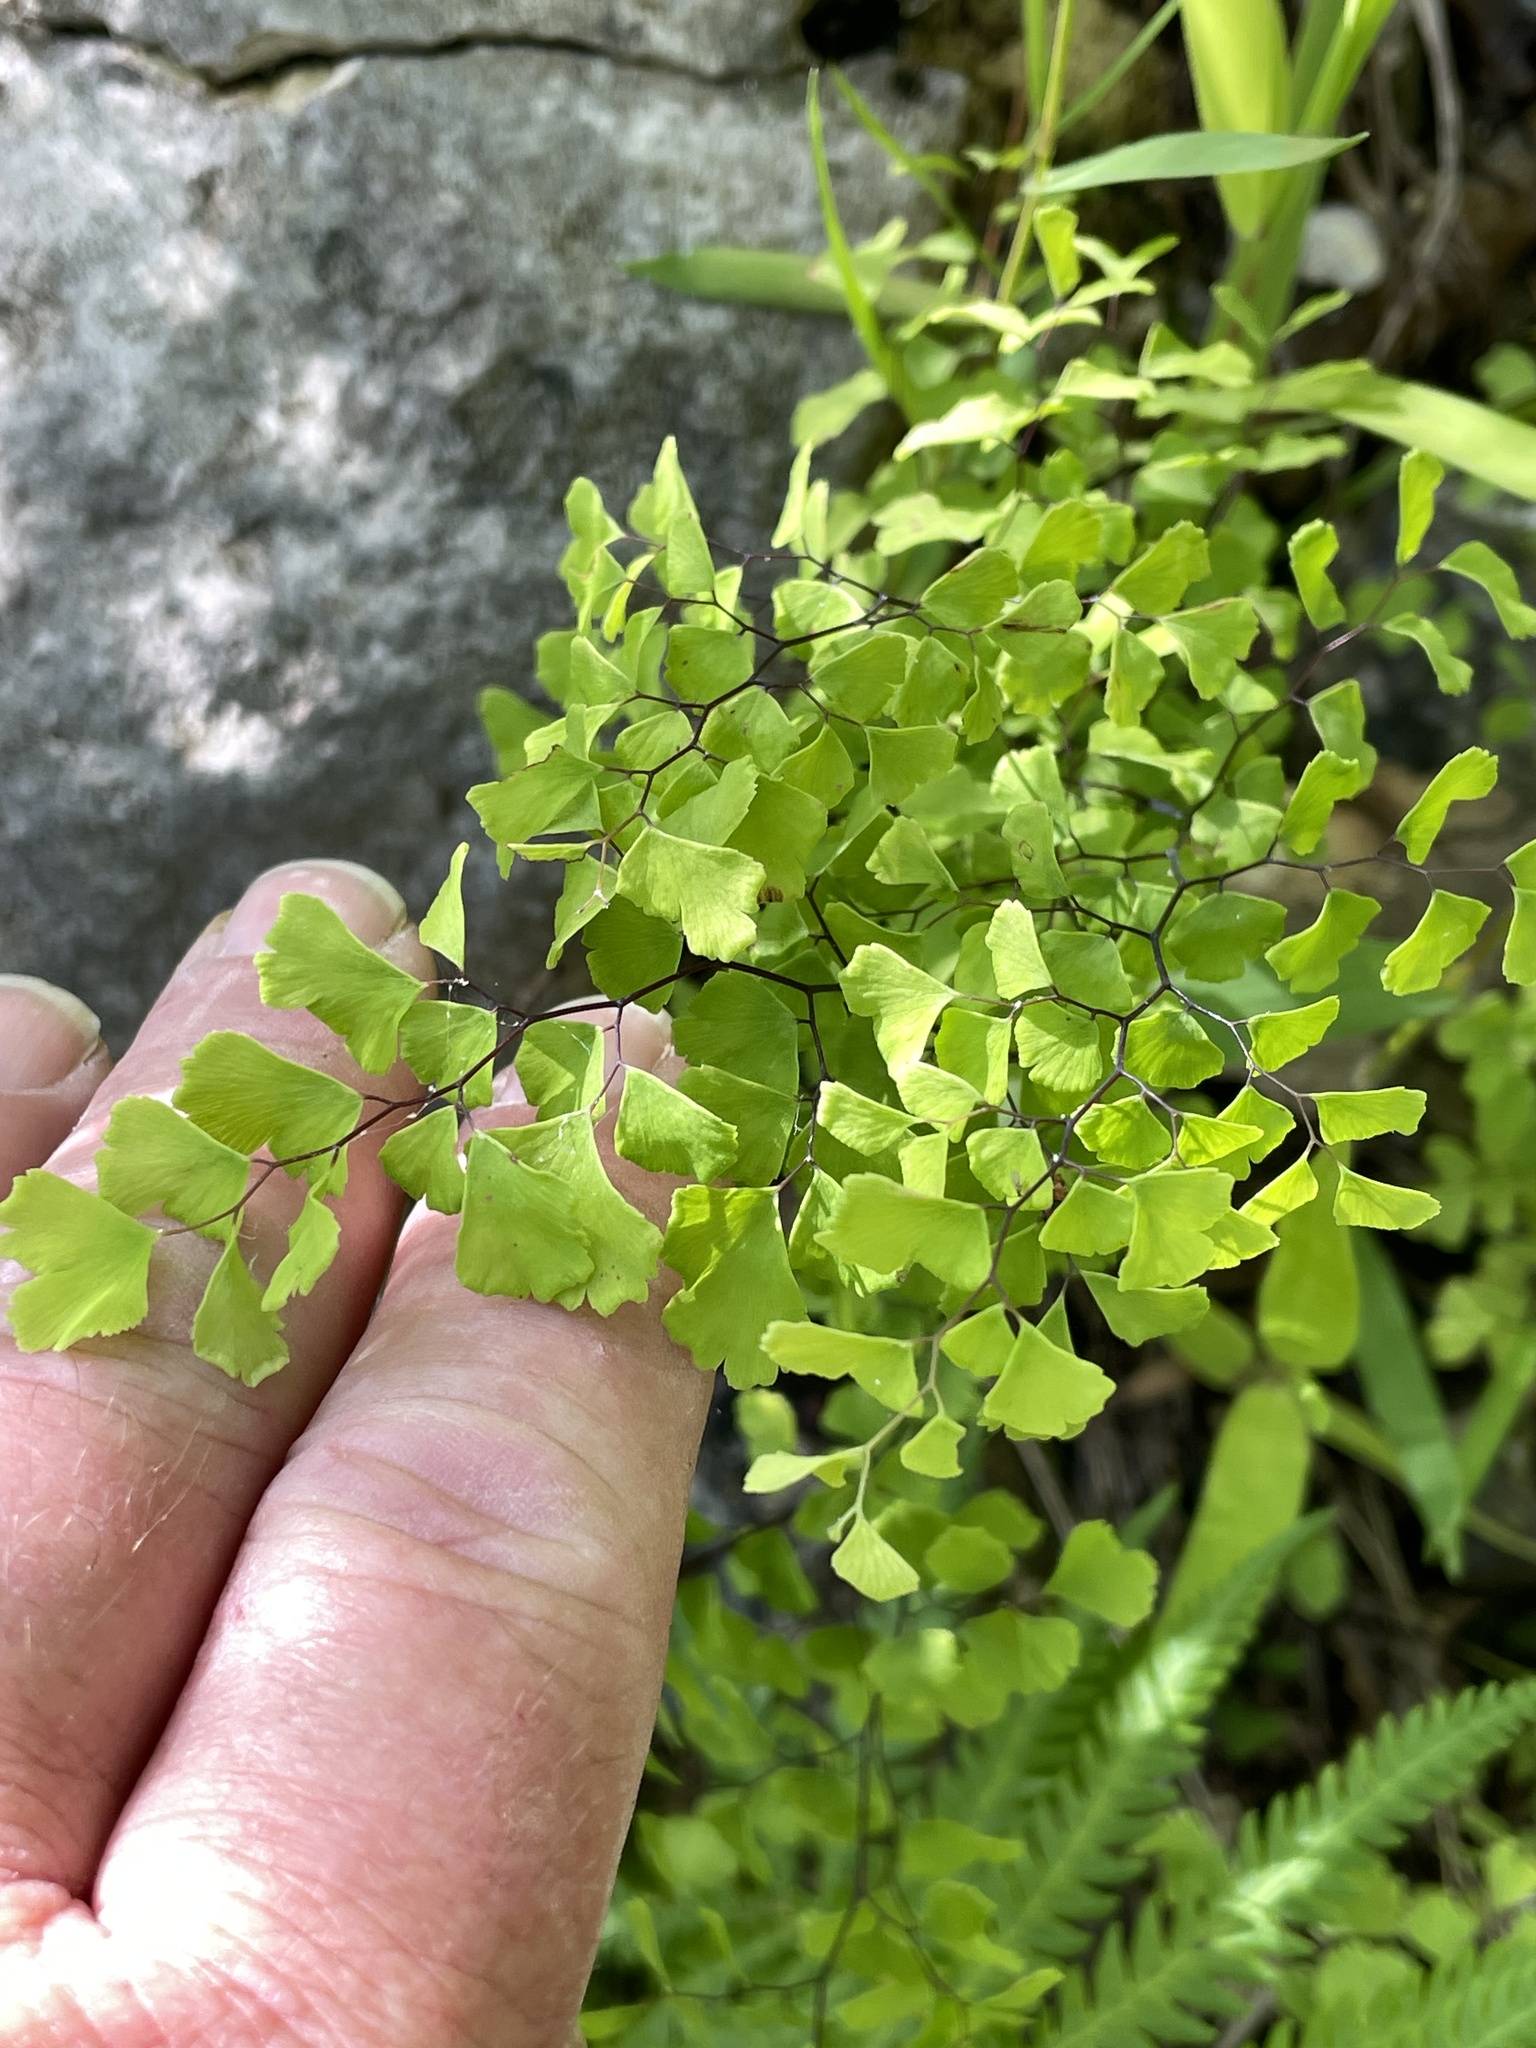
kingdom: Plantae
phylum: Tracheophyta
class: Polypodiopsida
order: Polypodiales
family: Pteridaceae
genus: Adiantum
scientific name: Adiantum capillus-veneris
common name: Maidenhair fern
